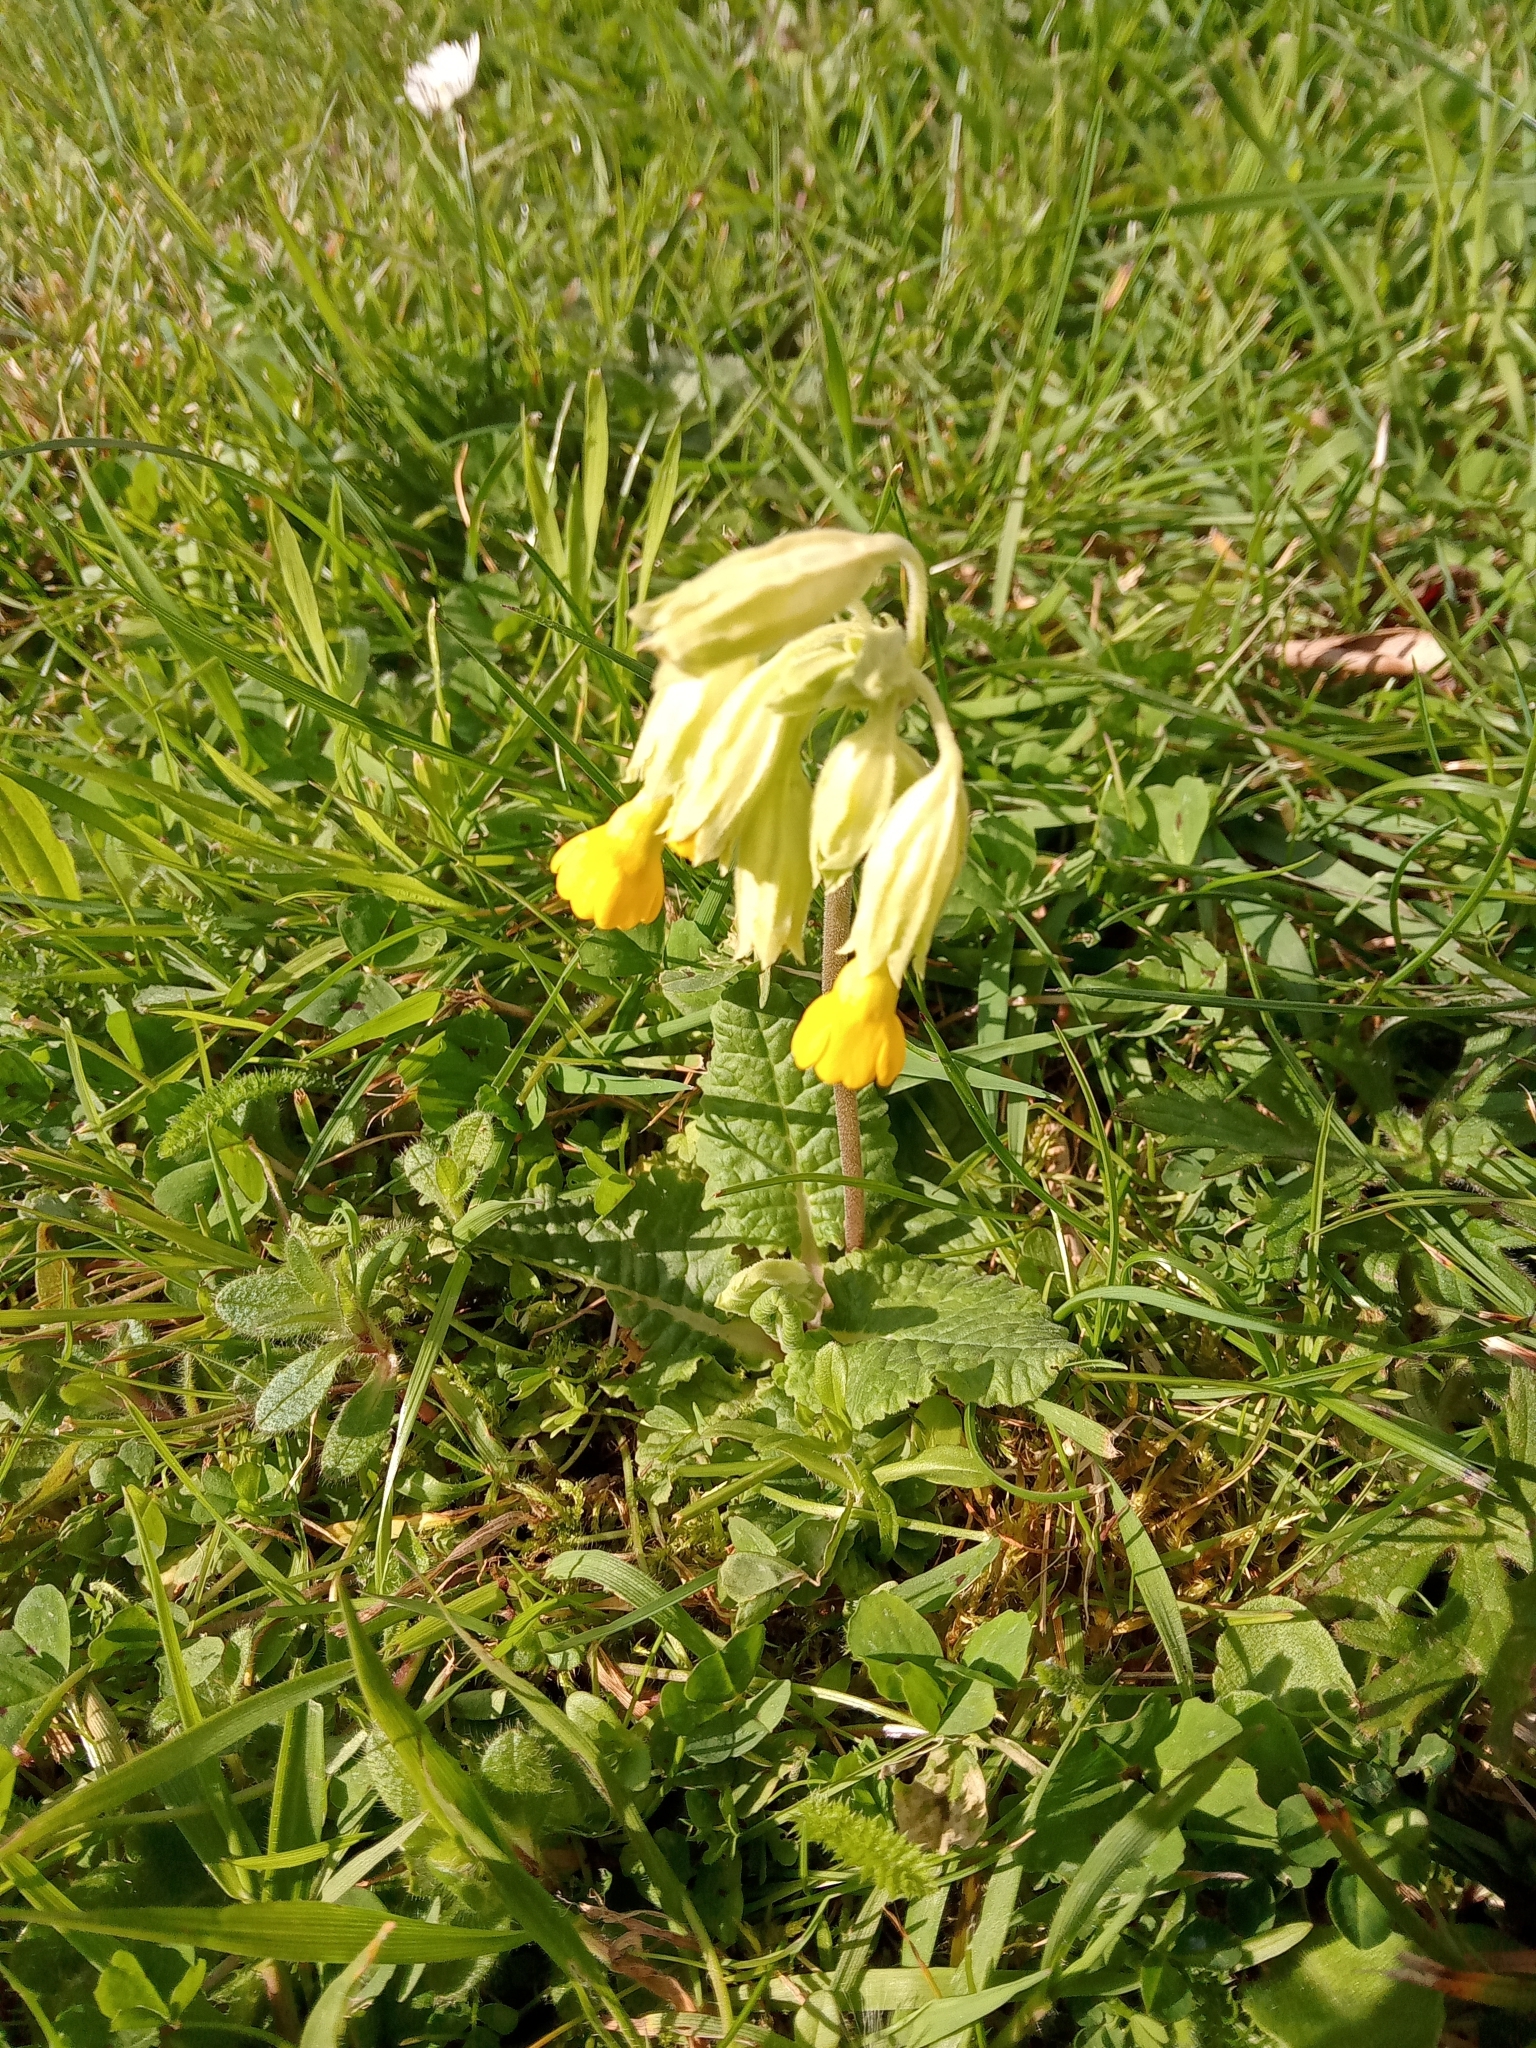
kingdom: Plantae
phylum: Tracheophyta
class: Magnoliopsida
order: Ericales
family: Primulaceae
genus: Primula
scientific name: Primula veris
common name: Cowslip
